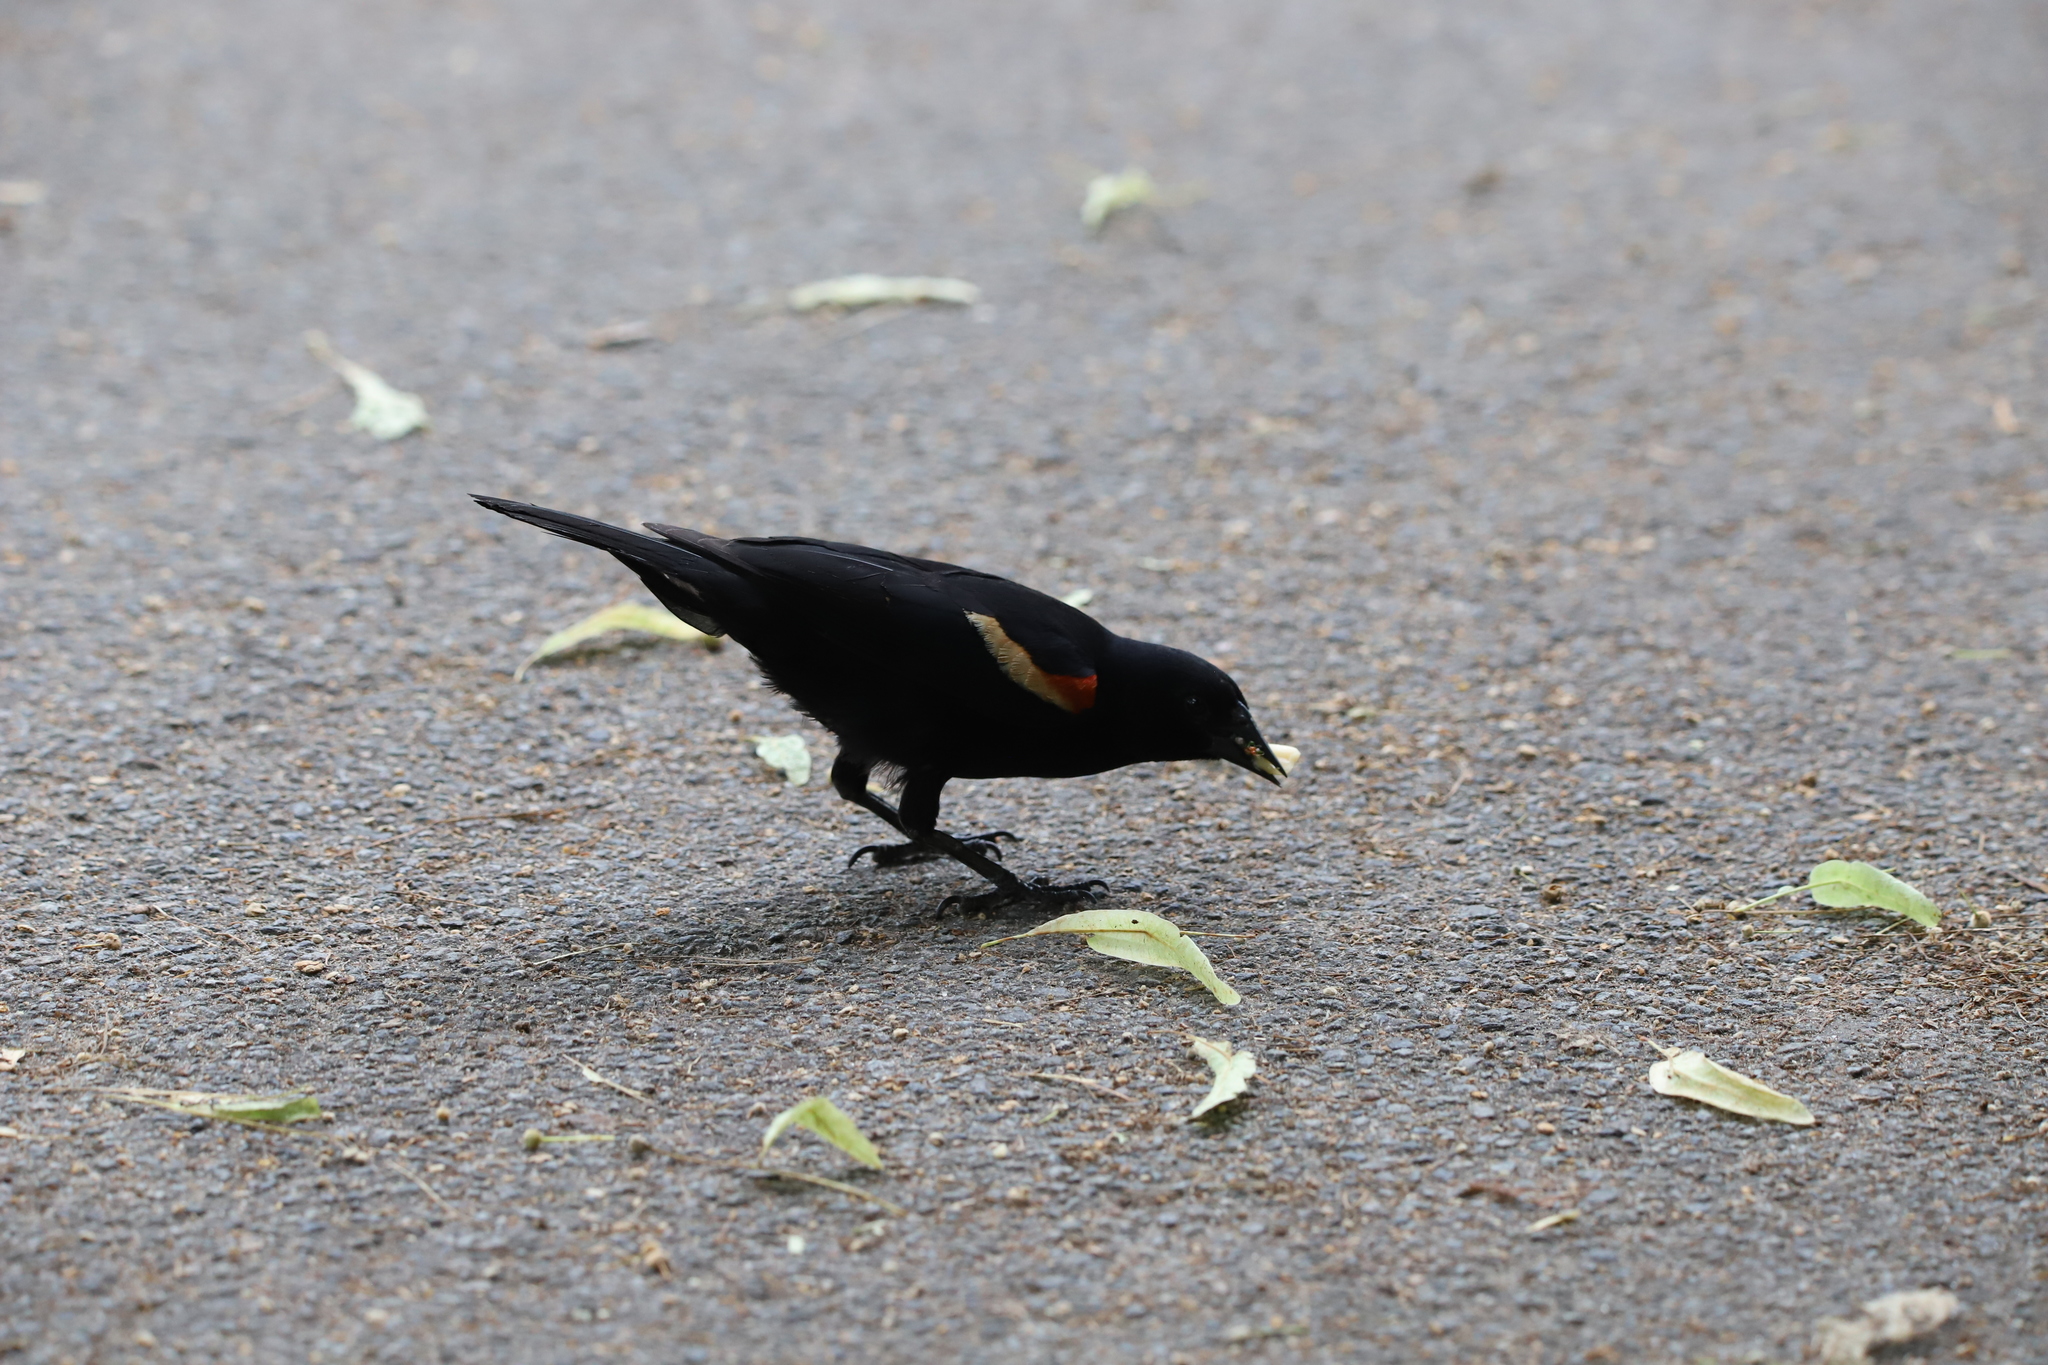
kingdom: Animalia
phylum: Chordata
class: Aves
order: Passeriformes
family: Icteridae
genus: Agelaius
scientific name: Agelaius phoeniceus
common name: Red-winged blackbird
